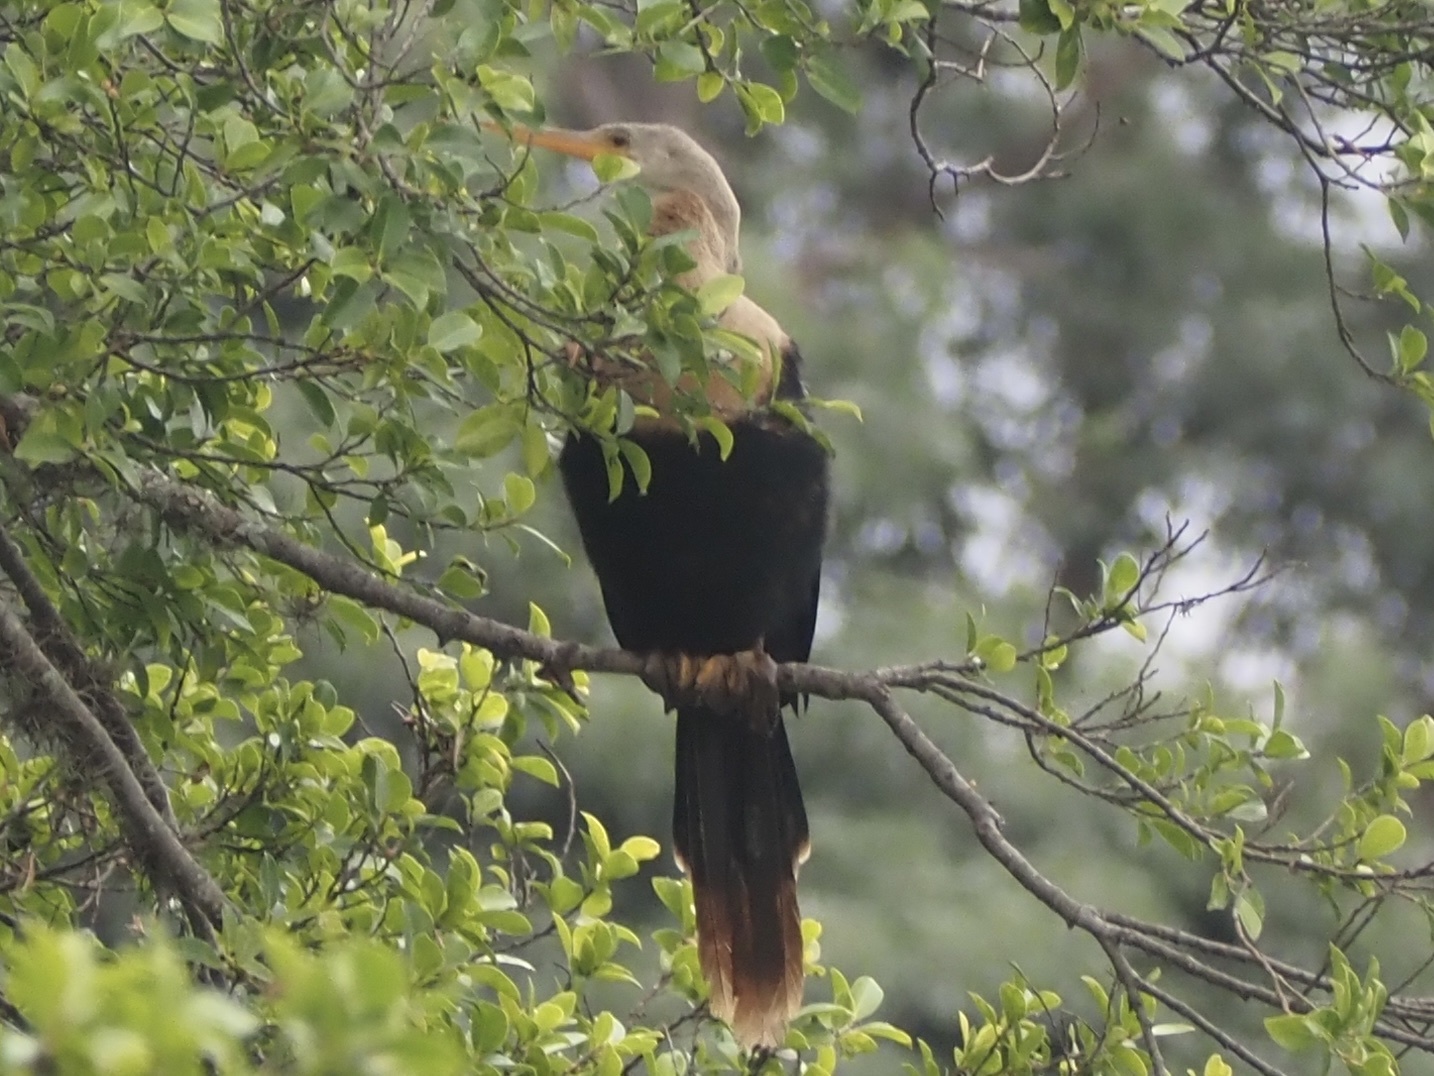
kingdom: Animalia
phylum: Chordata
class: Aves
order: Suliformes
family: Anhingidae
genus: Anhinga
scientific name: Anhinga anhinga
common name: Anhinga
